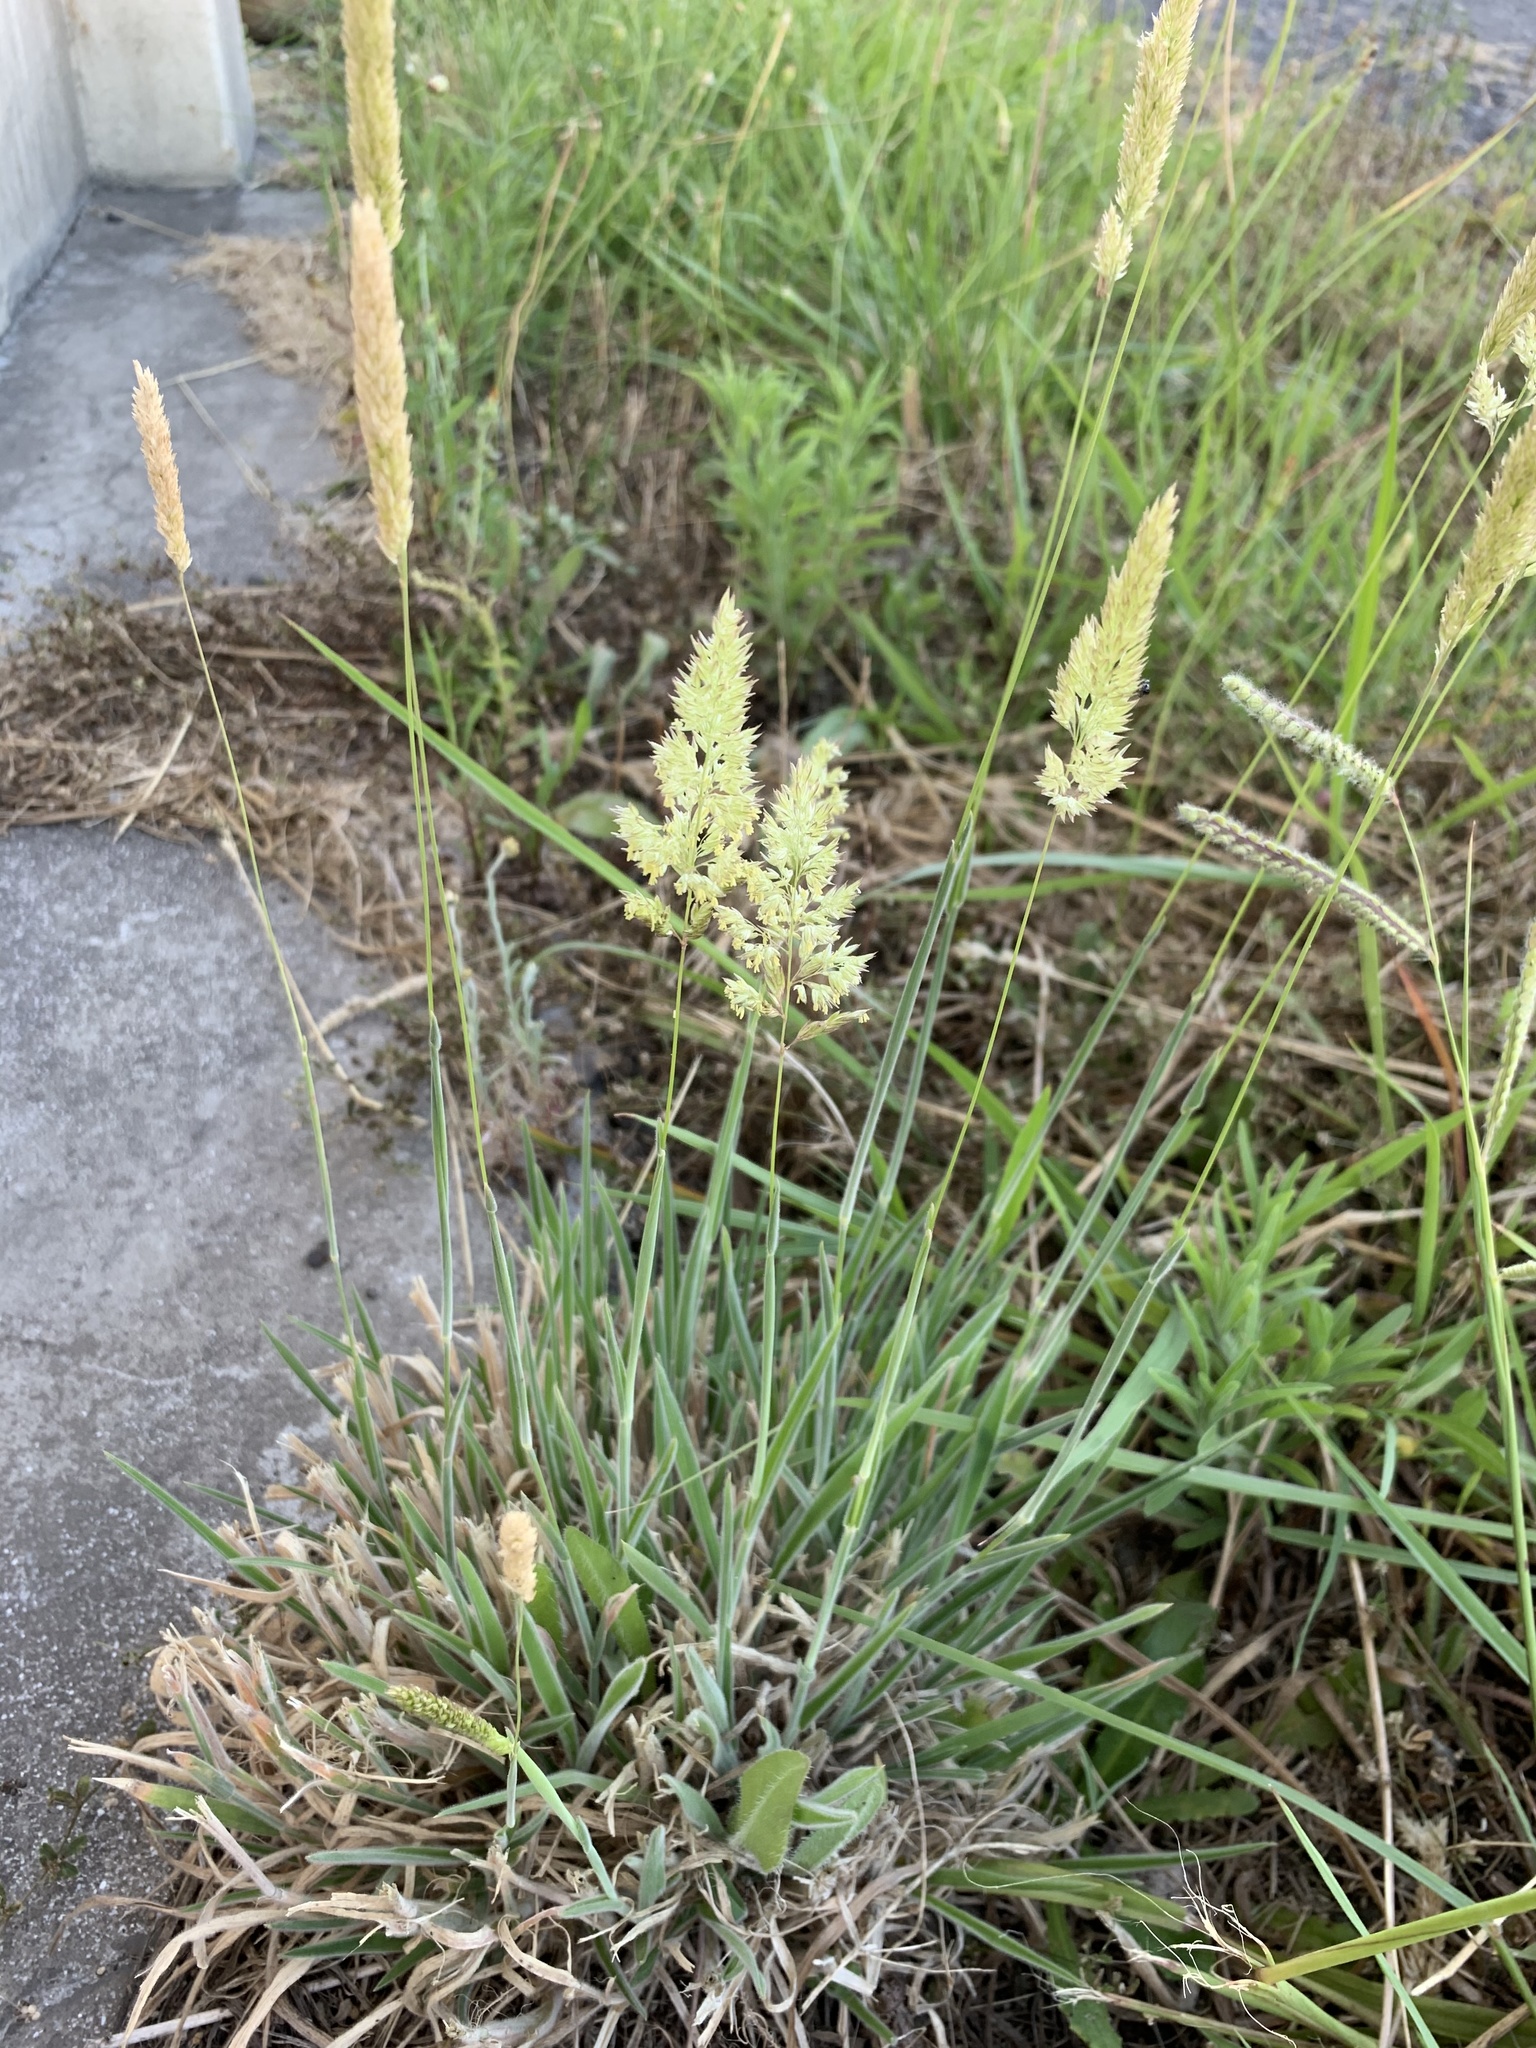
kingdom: Plantae
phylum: Tracheophyta
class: Liliopsida
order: Poales
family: Poaceae
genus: Holcus
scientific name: Holcus lanatus
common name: Yorkshire-fog
